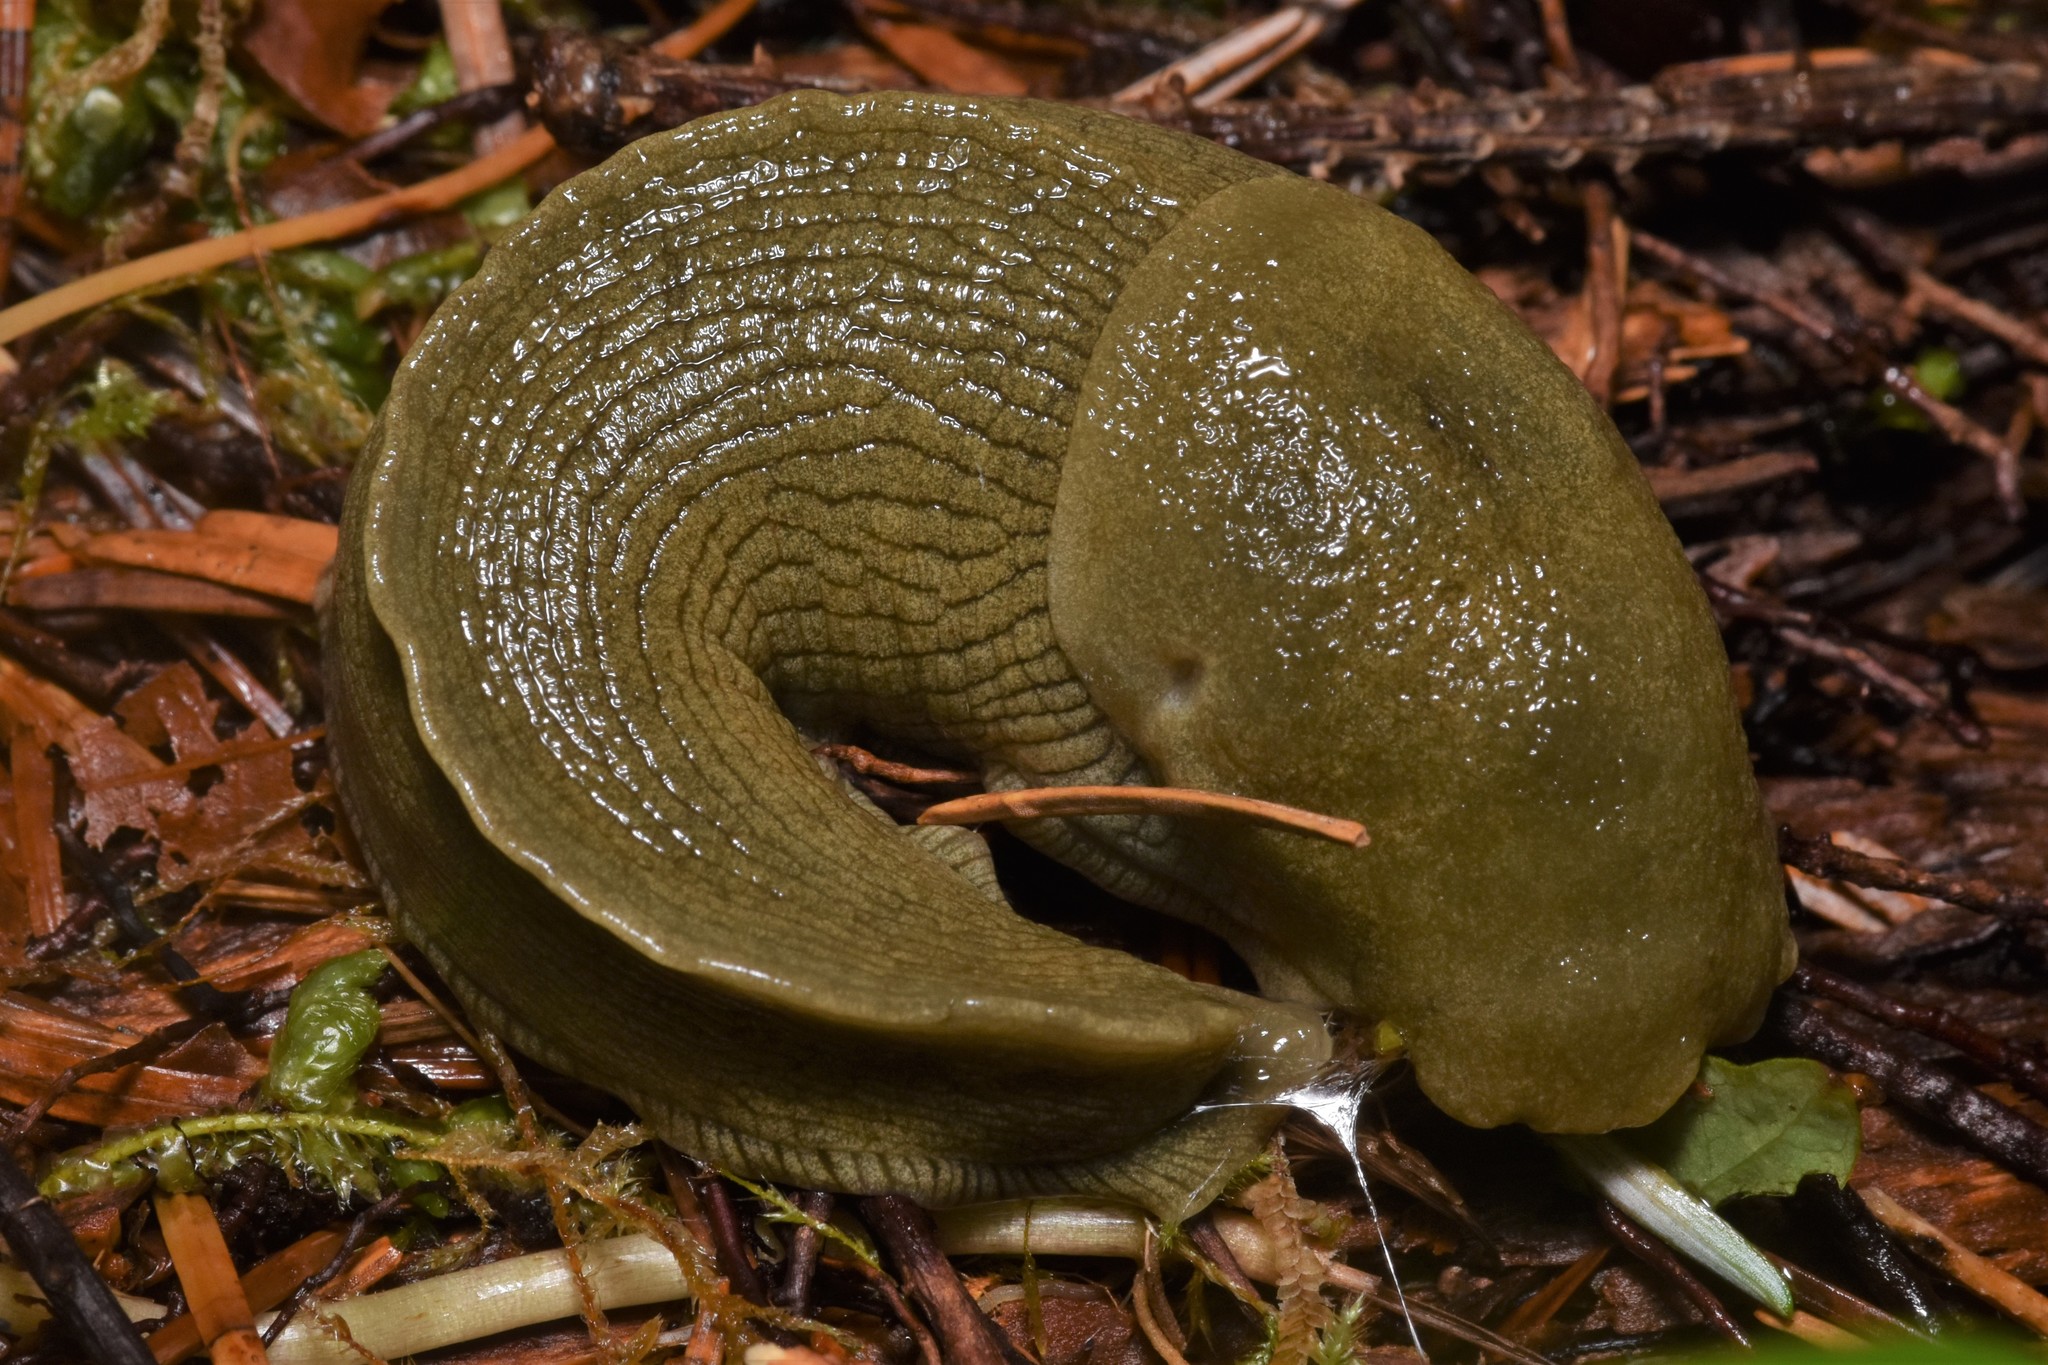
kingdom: Animalia
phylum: Mollusca
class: Gastropoda
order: Stylommatophora
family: Ariolimacidae
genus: Ariolimax
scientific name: Ariolimax columbianus
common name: Pacific banana slug
